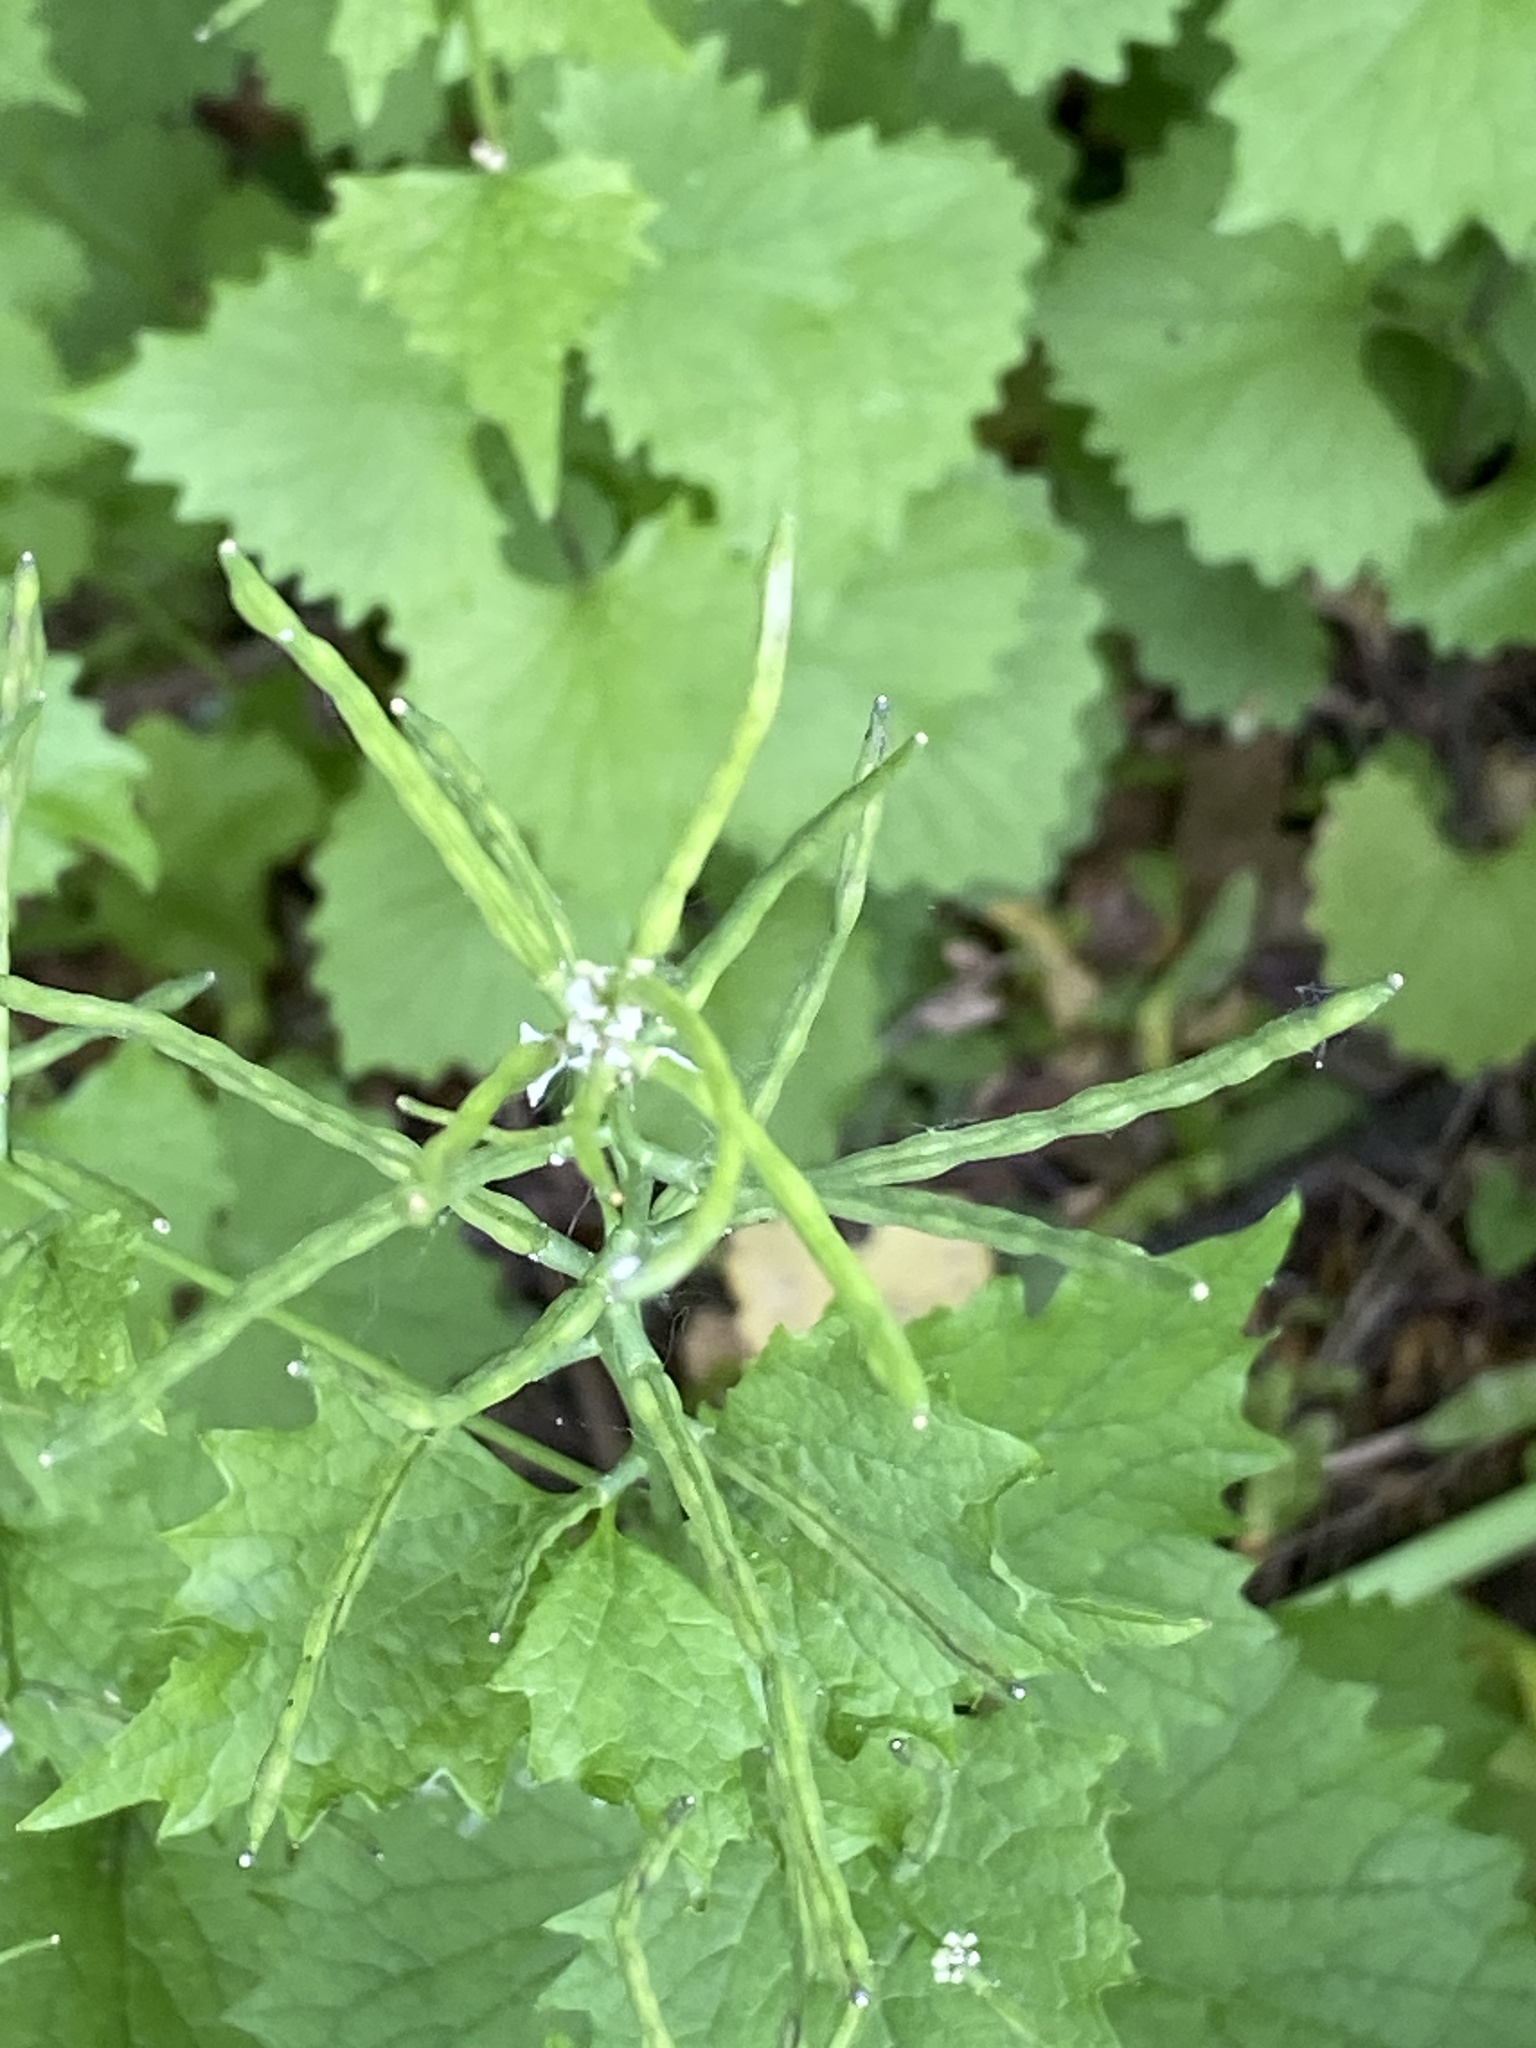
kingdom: Plantae
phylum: Tracheophyta
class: Magnoliopsida
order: Brassicales
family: Brassicaceae
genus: Alliaria
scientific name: Alliaria petiolata
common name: Garlic mustard
